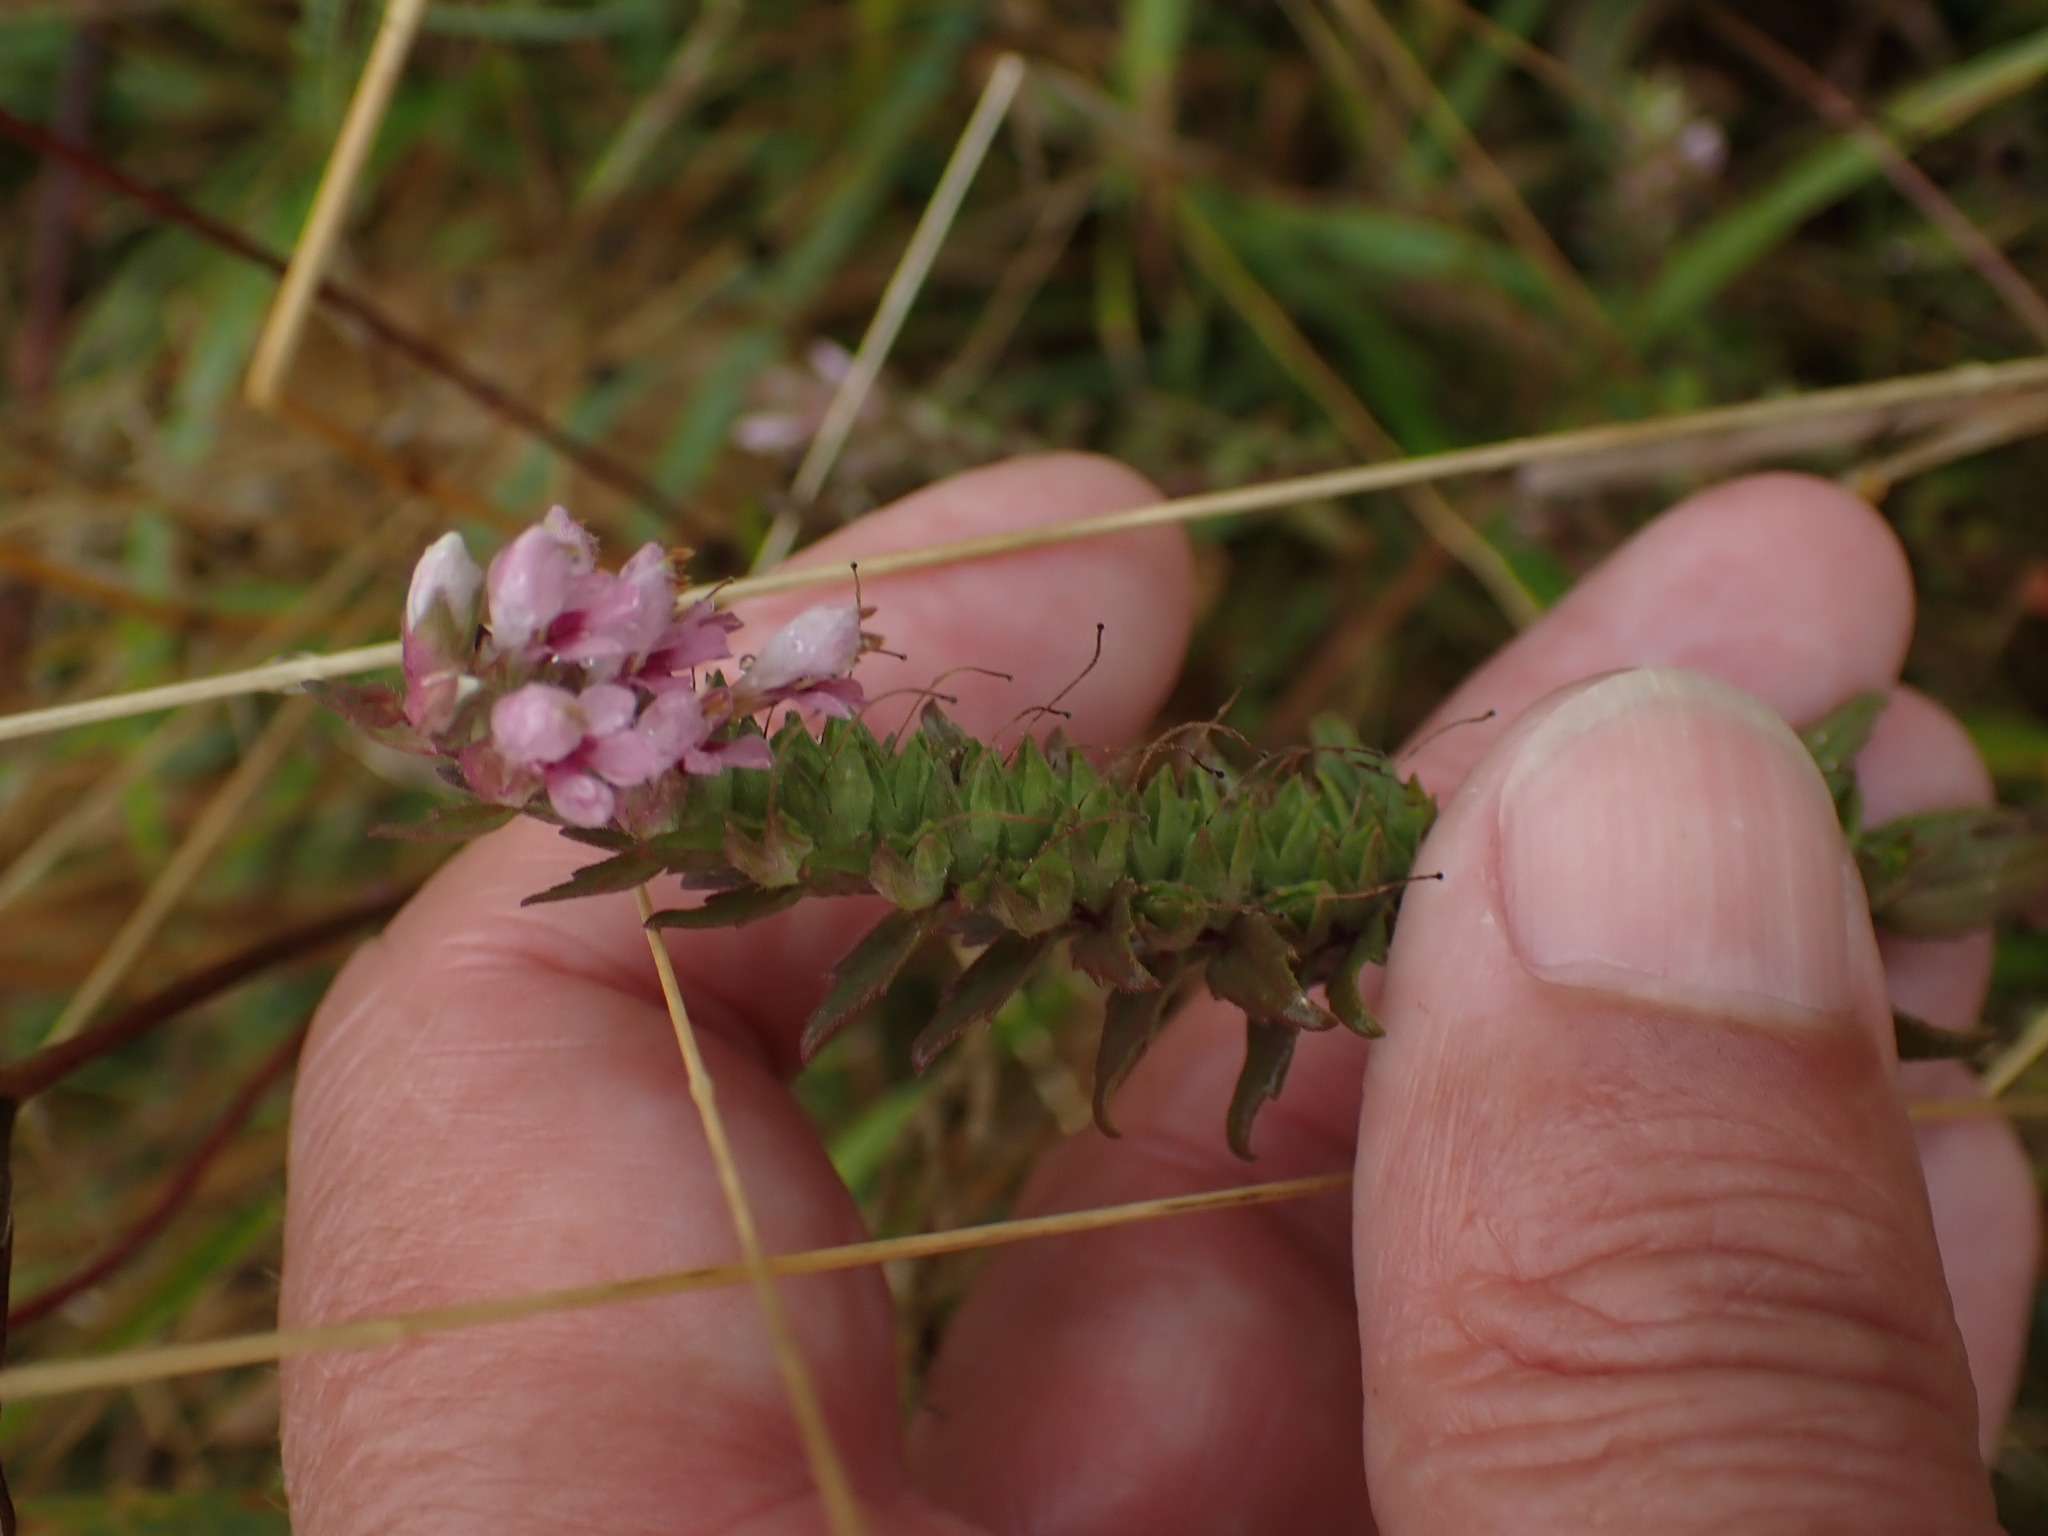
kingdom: Plantae
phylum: Tracheophyta
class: Magnoliopsida
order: Lamiales
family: Orobanchaceae
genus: Odontites
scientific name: Odontites vulgaris
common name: Broomrape
